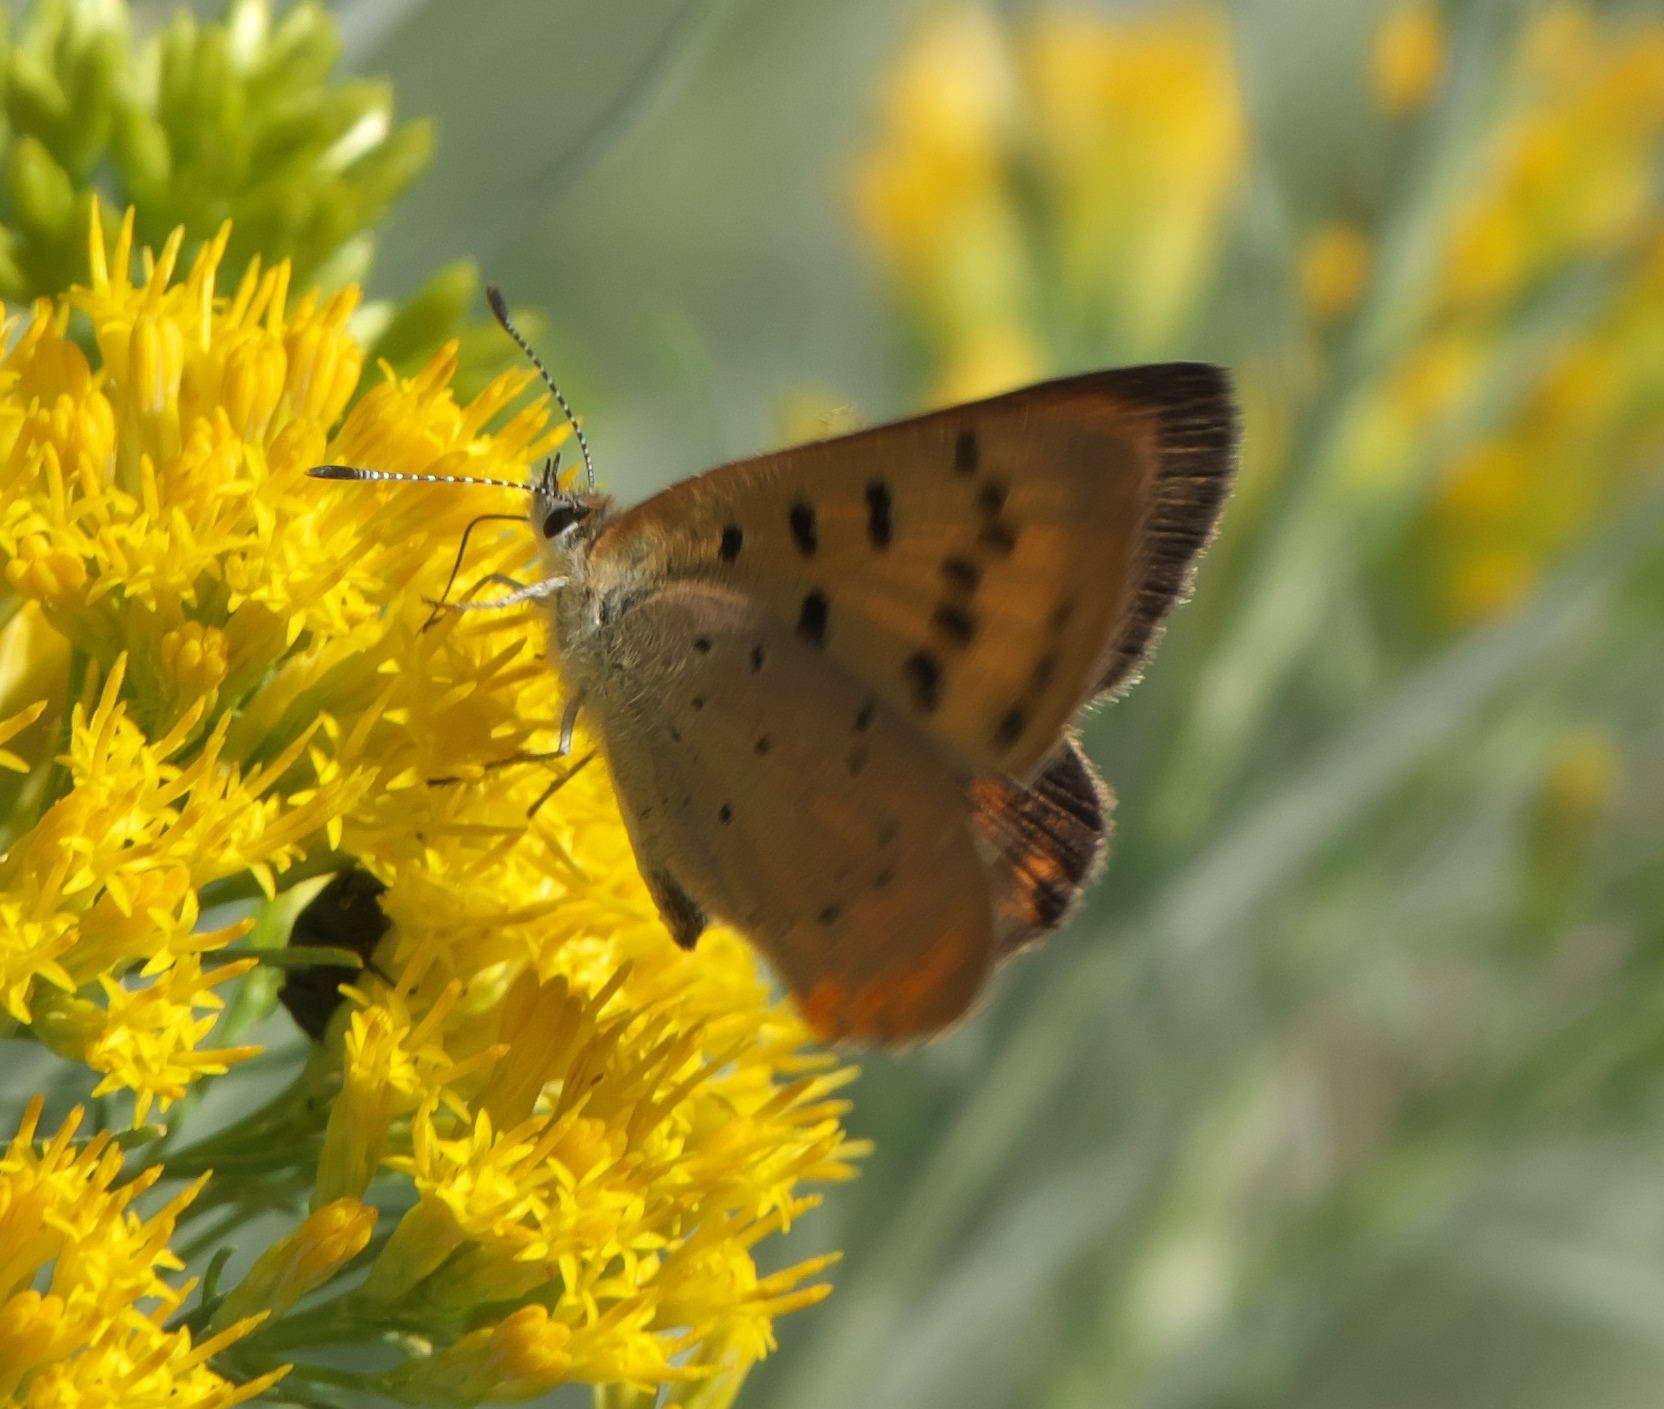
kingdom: Animalia
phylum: Arthropoda
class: Insecta
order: Lepidoptera
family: Lycaenidae
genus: Tharsalea
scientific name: Tharsalea helloides
